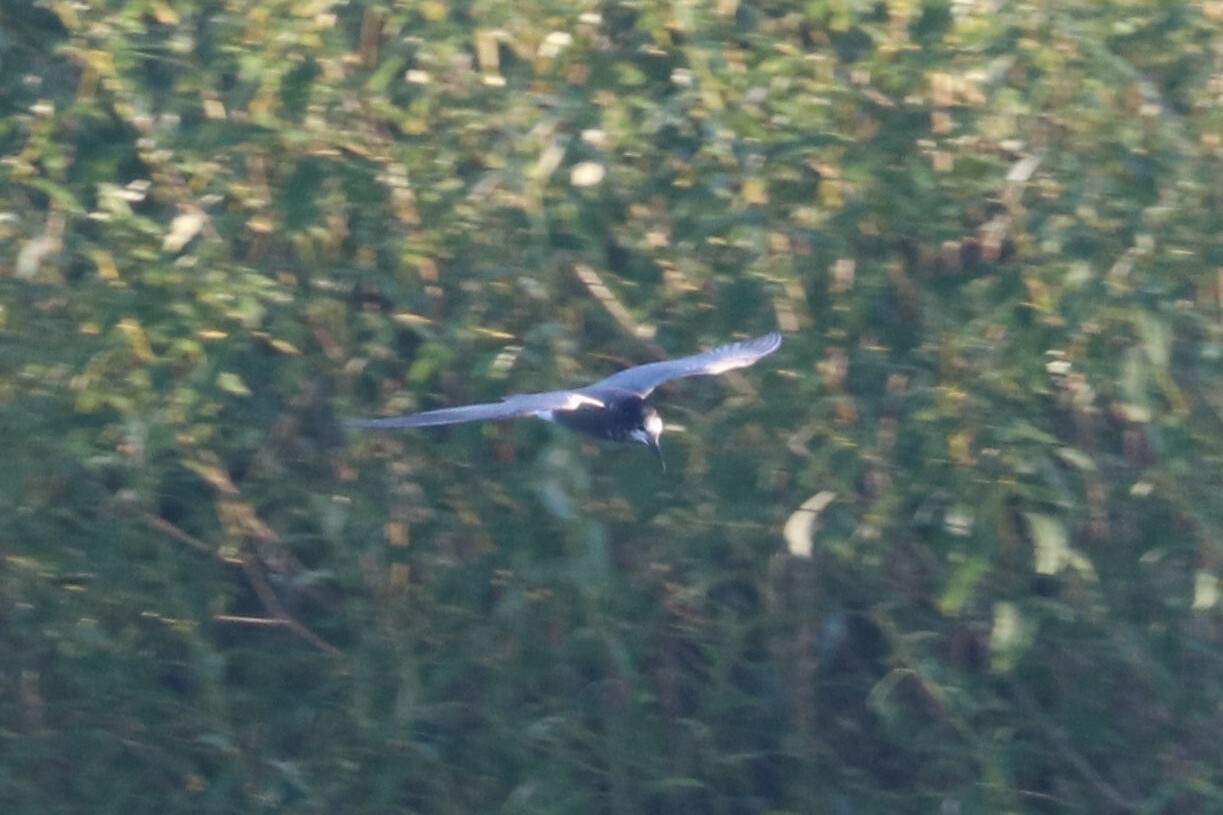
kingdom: Animalia
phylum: Chordata
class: Aves
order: Charadriiformes
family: Laridae
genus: Chlidonias
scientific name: Chlidonias niger
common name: Black tern
